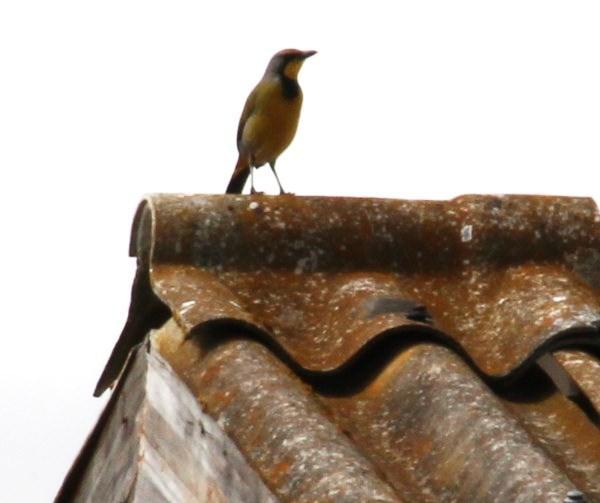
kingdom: Animalia
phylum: Chordata
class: Aves
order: Passeriformes
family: Malaconotidae
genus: Telophorus
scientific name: Telophorus zeylonus
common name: Bokmakierie
